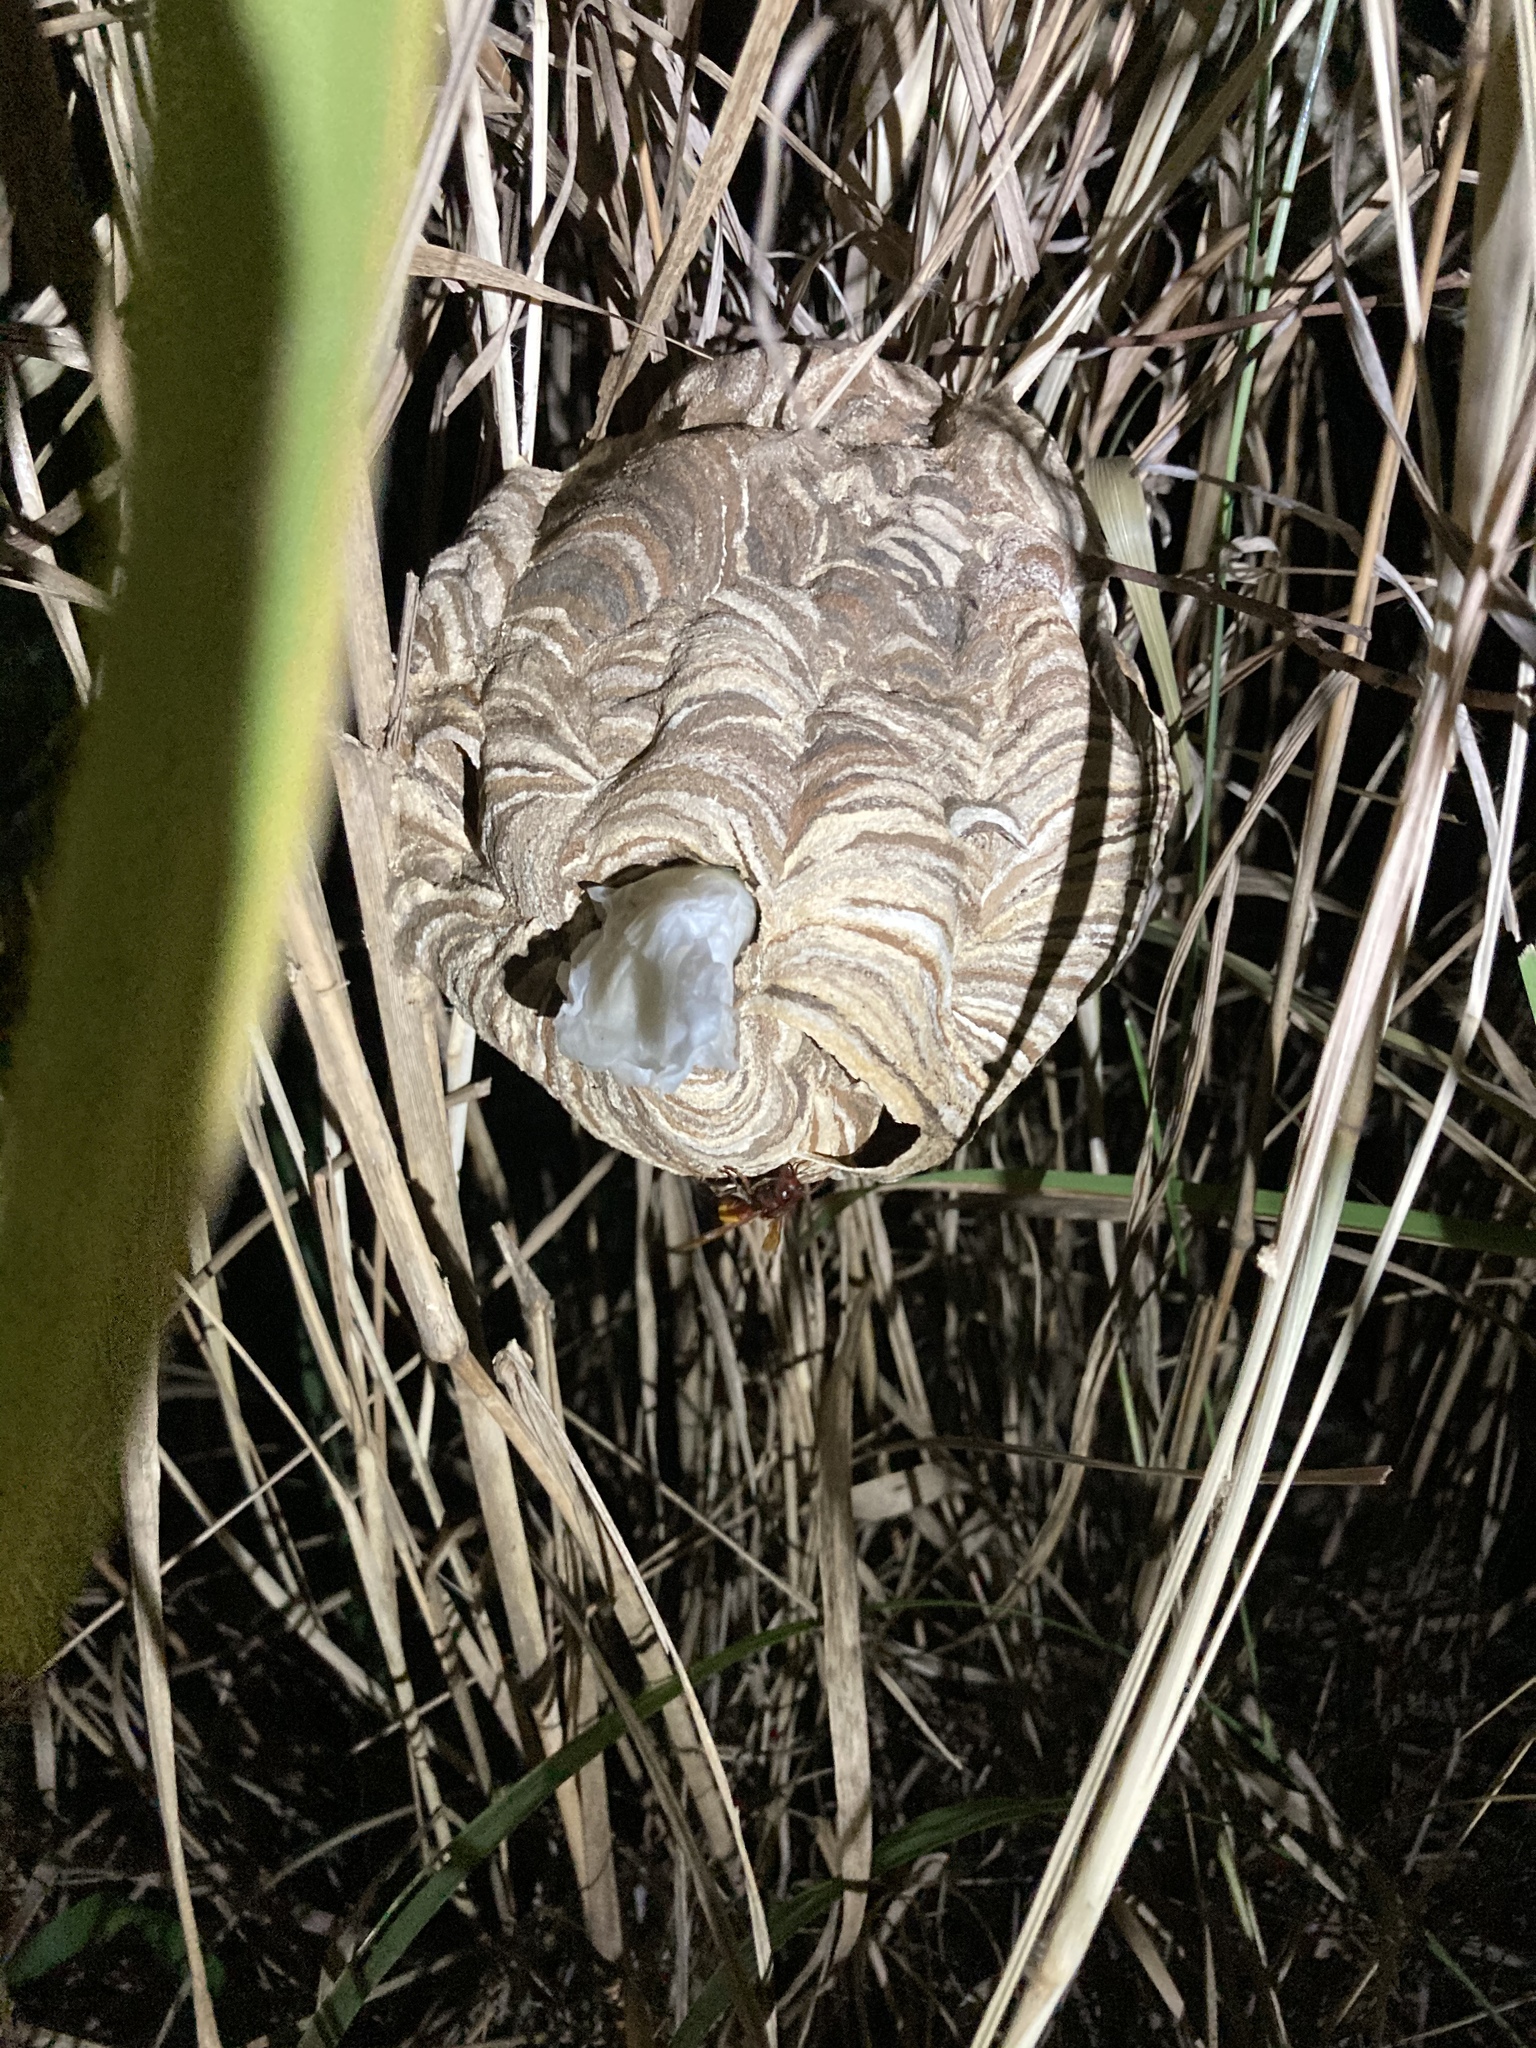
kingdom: Animalia
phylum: Arthropoda
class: Insecta
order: Hymenoptera
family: Vespidae
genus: Vespa
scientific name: Vespa affinis
